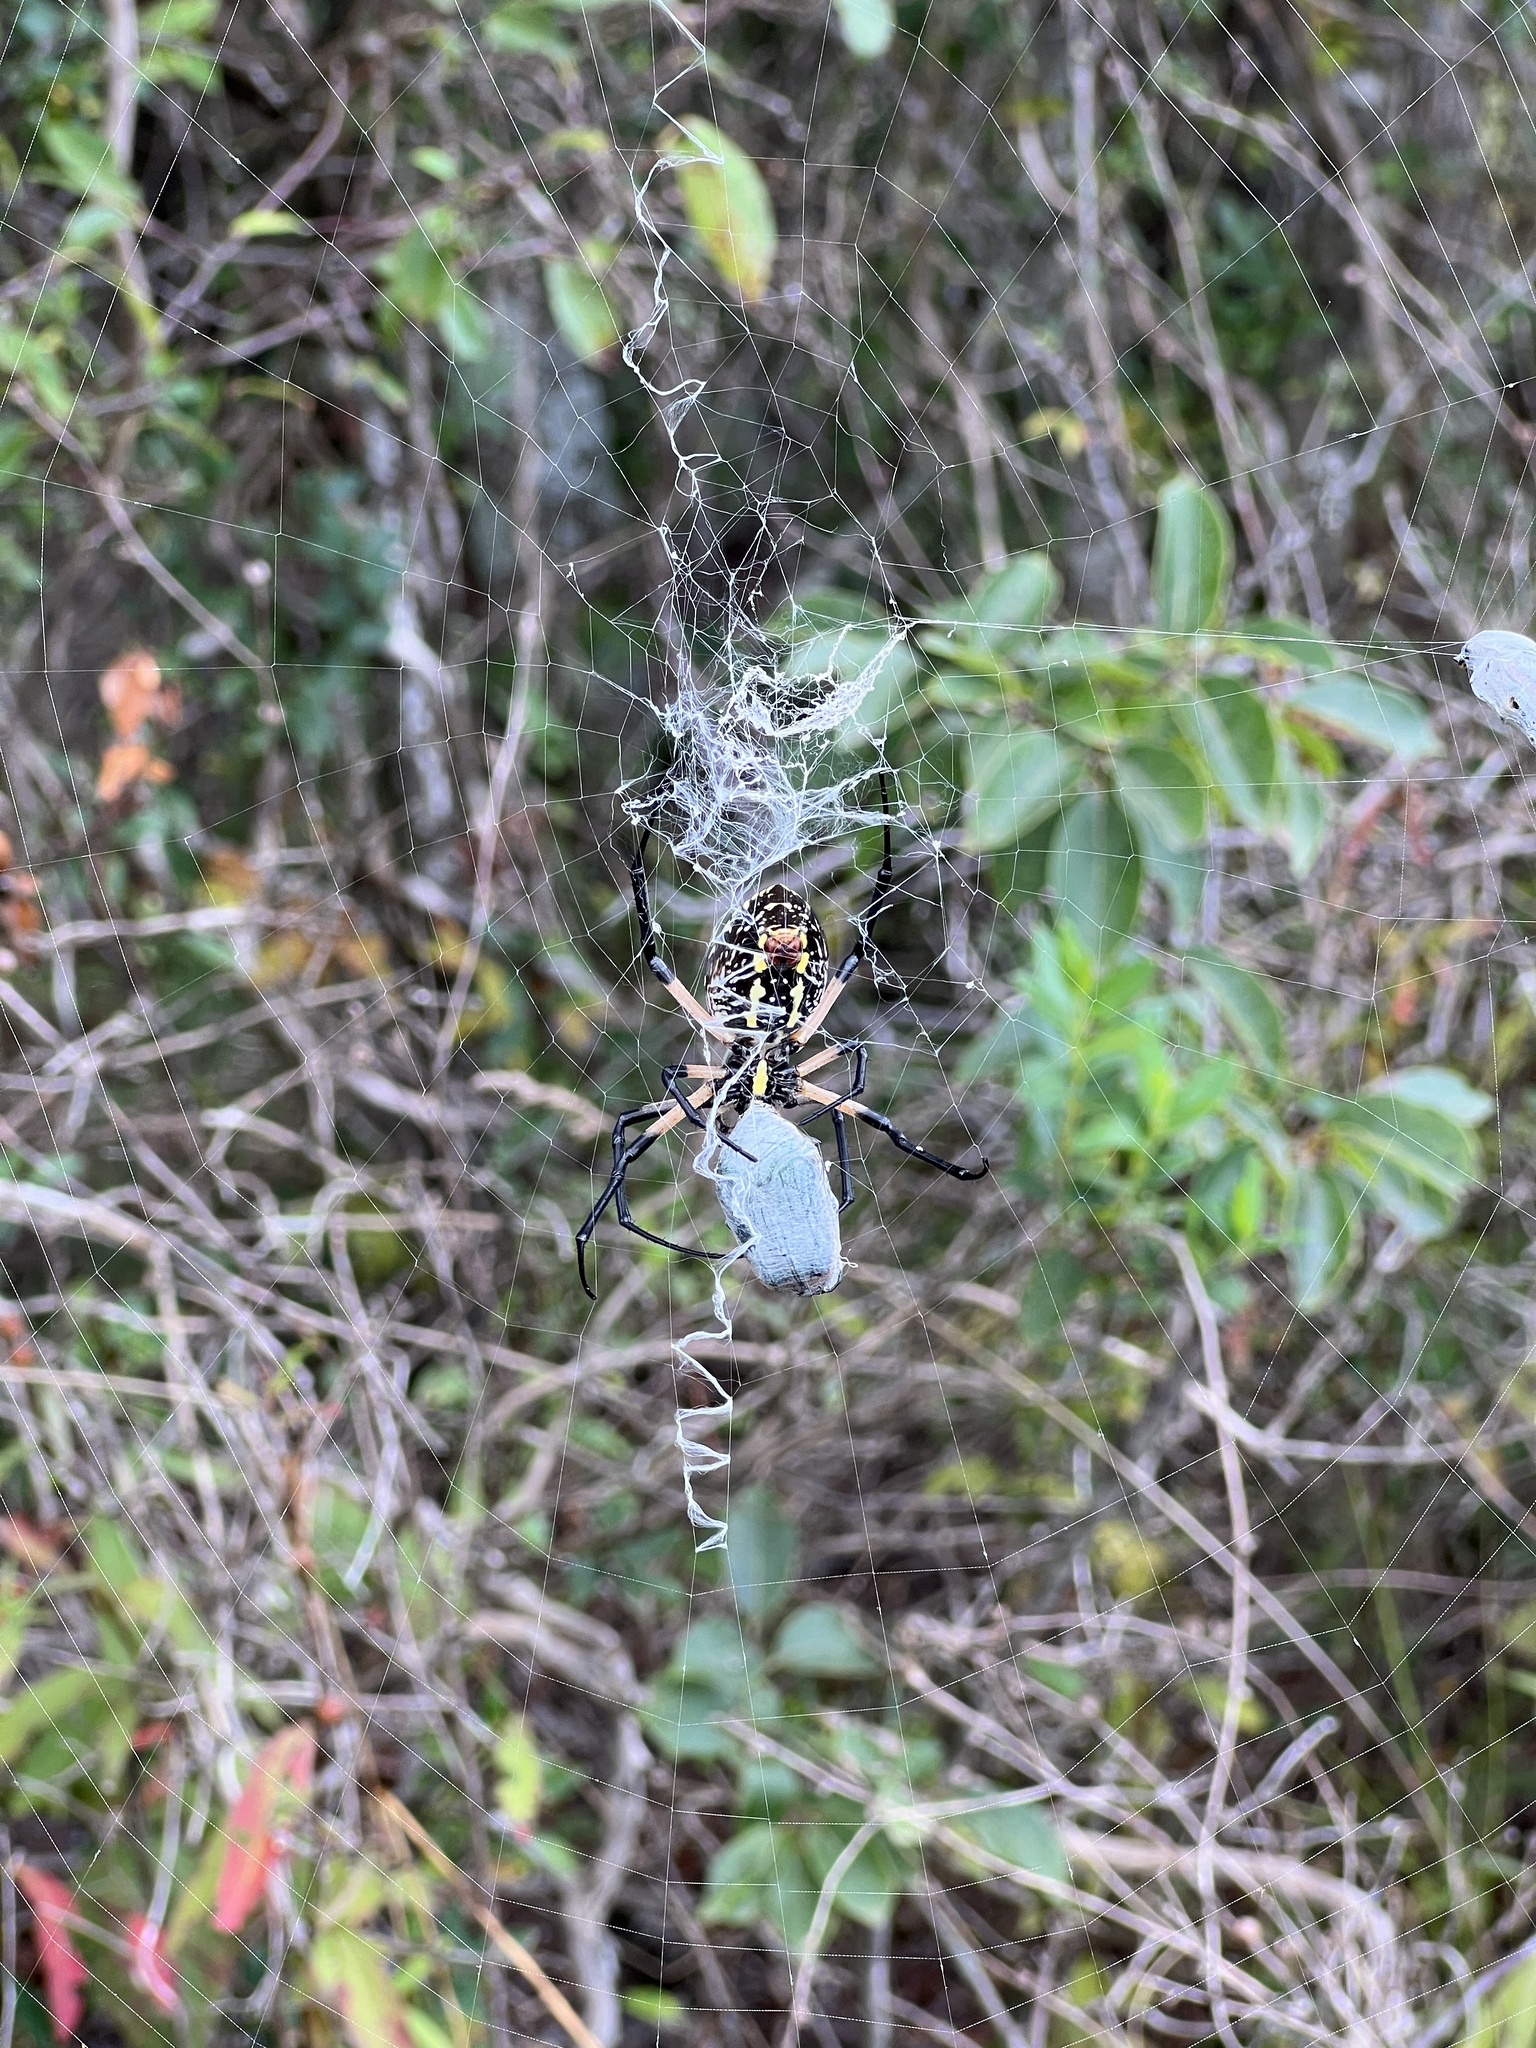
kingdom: Animalia
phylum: Arthropoda
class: Arachnida
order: Araneae
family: Araneidae
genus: Argiope
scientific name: Argiope aurantia
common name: Orb weavers
